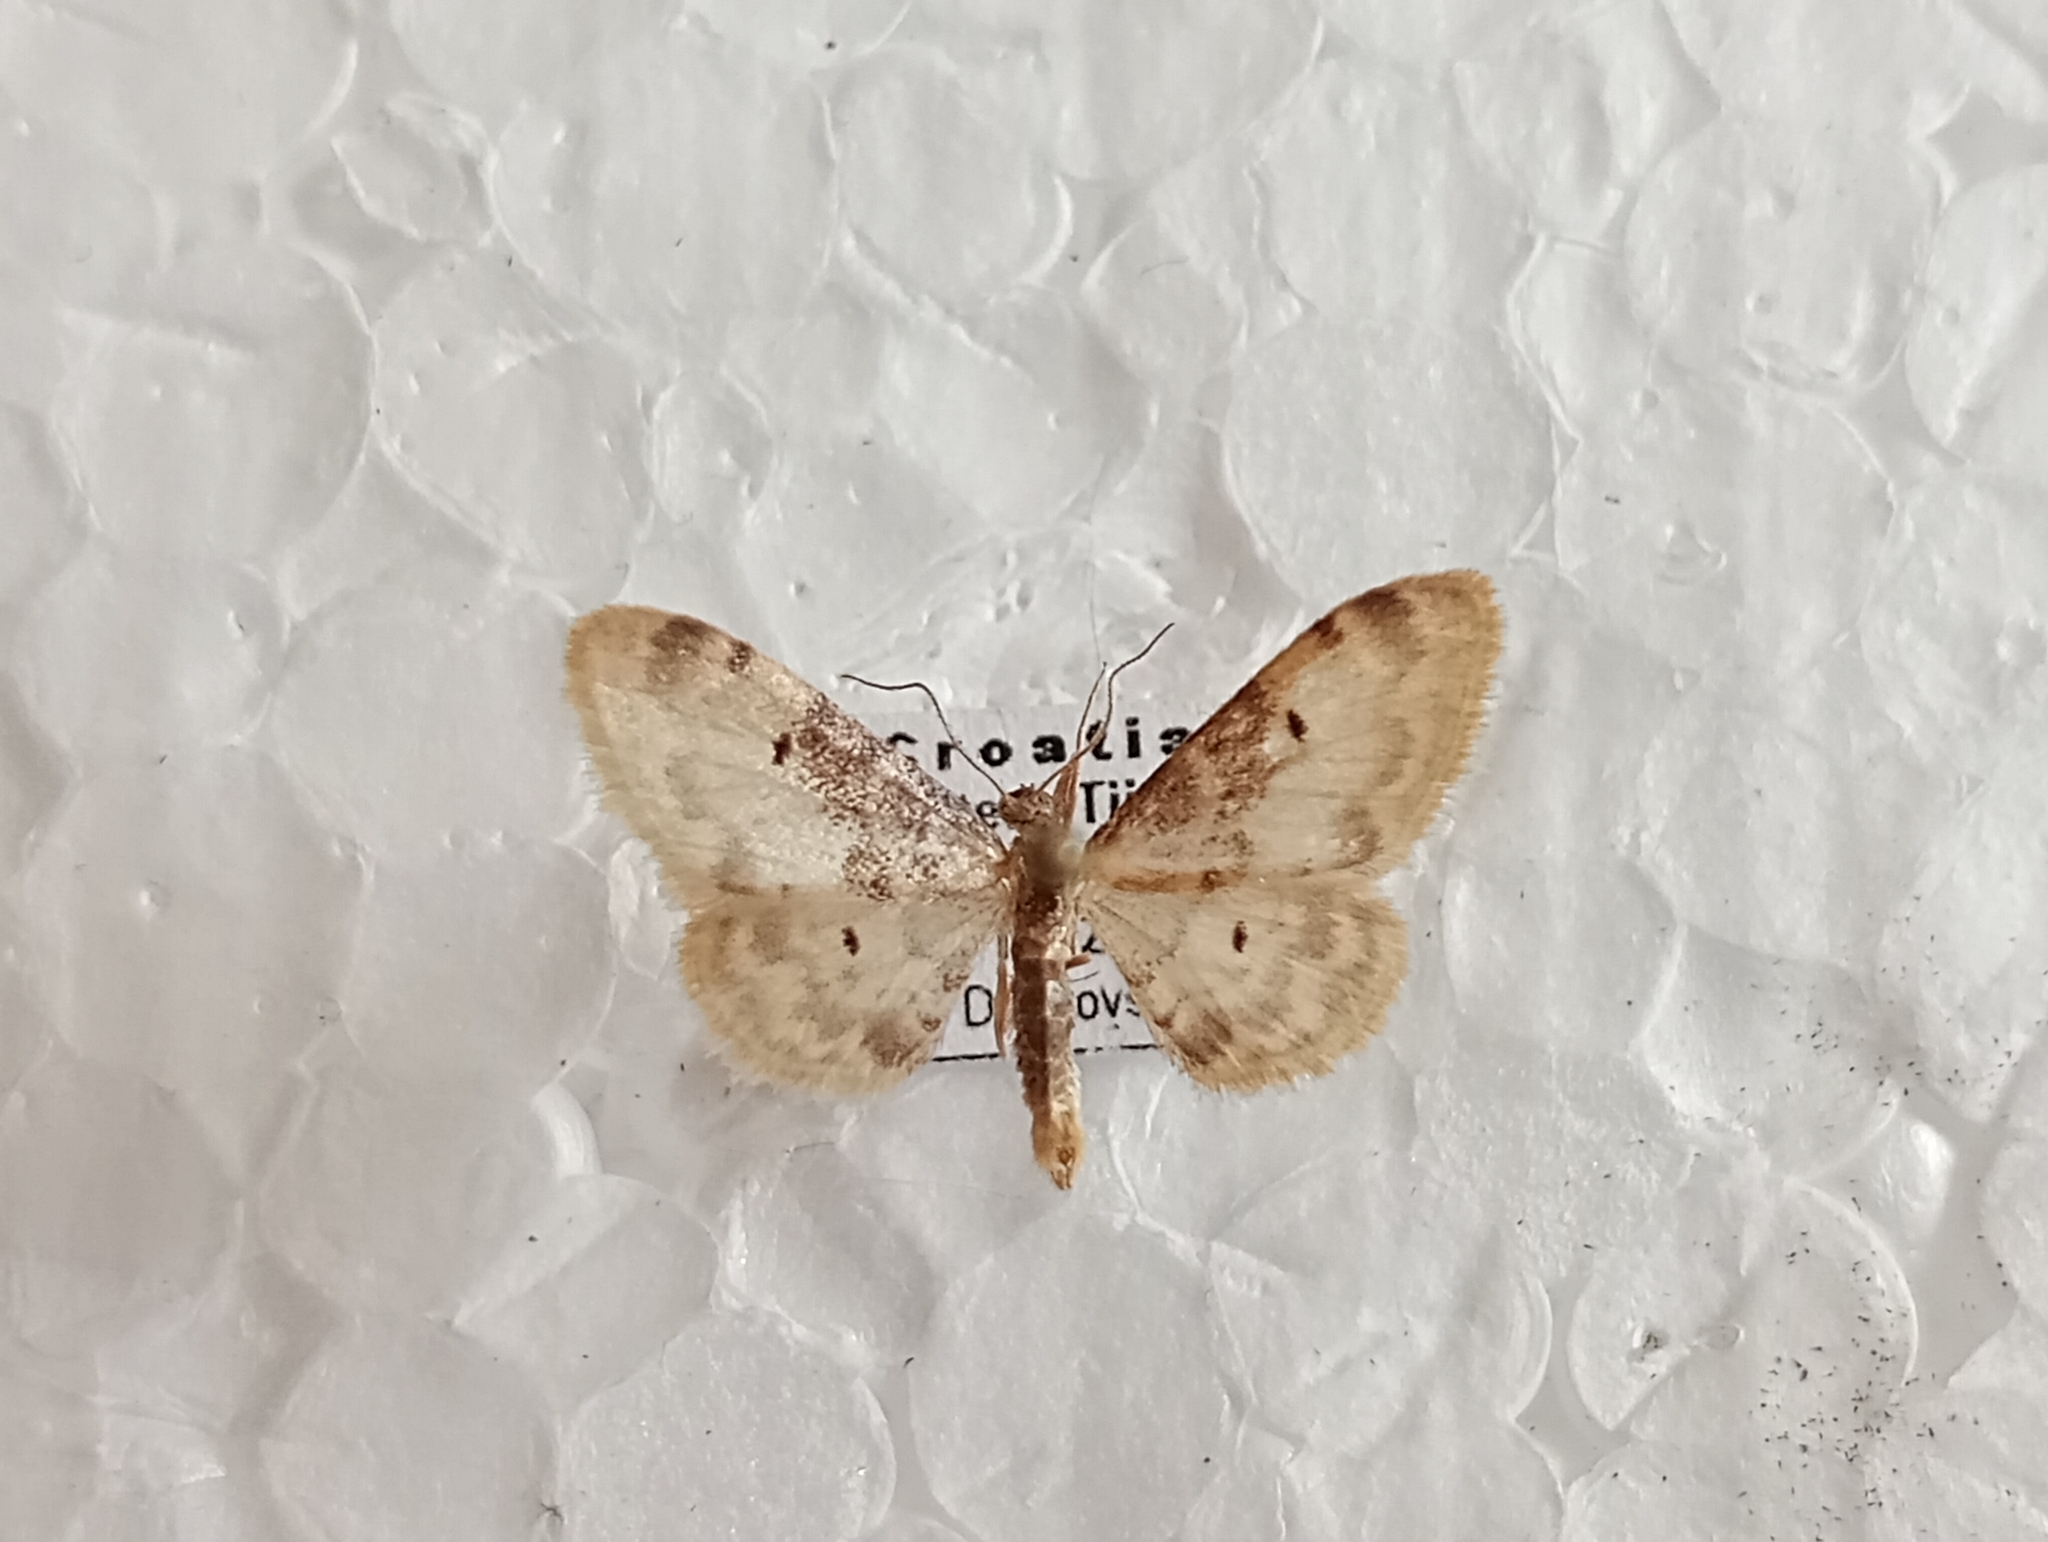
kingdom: Animalia
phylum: Arthropoda
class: Insecta
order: Lepidoptera
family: Geometridae
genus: Idaea
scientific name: Idaea filicata
